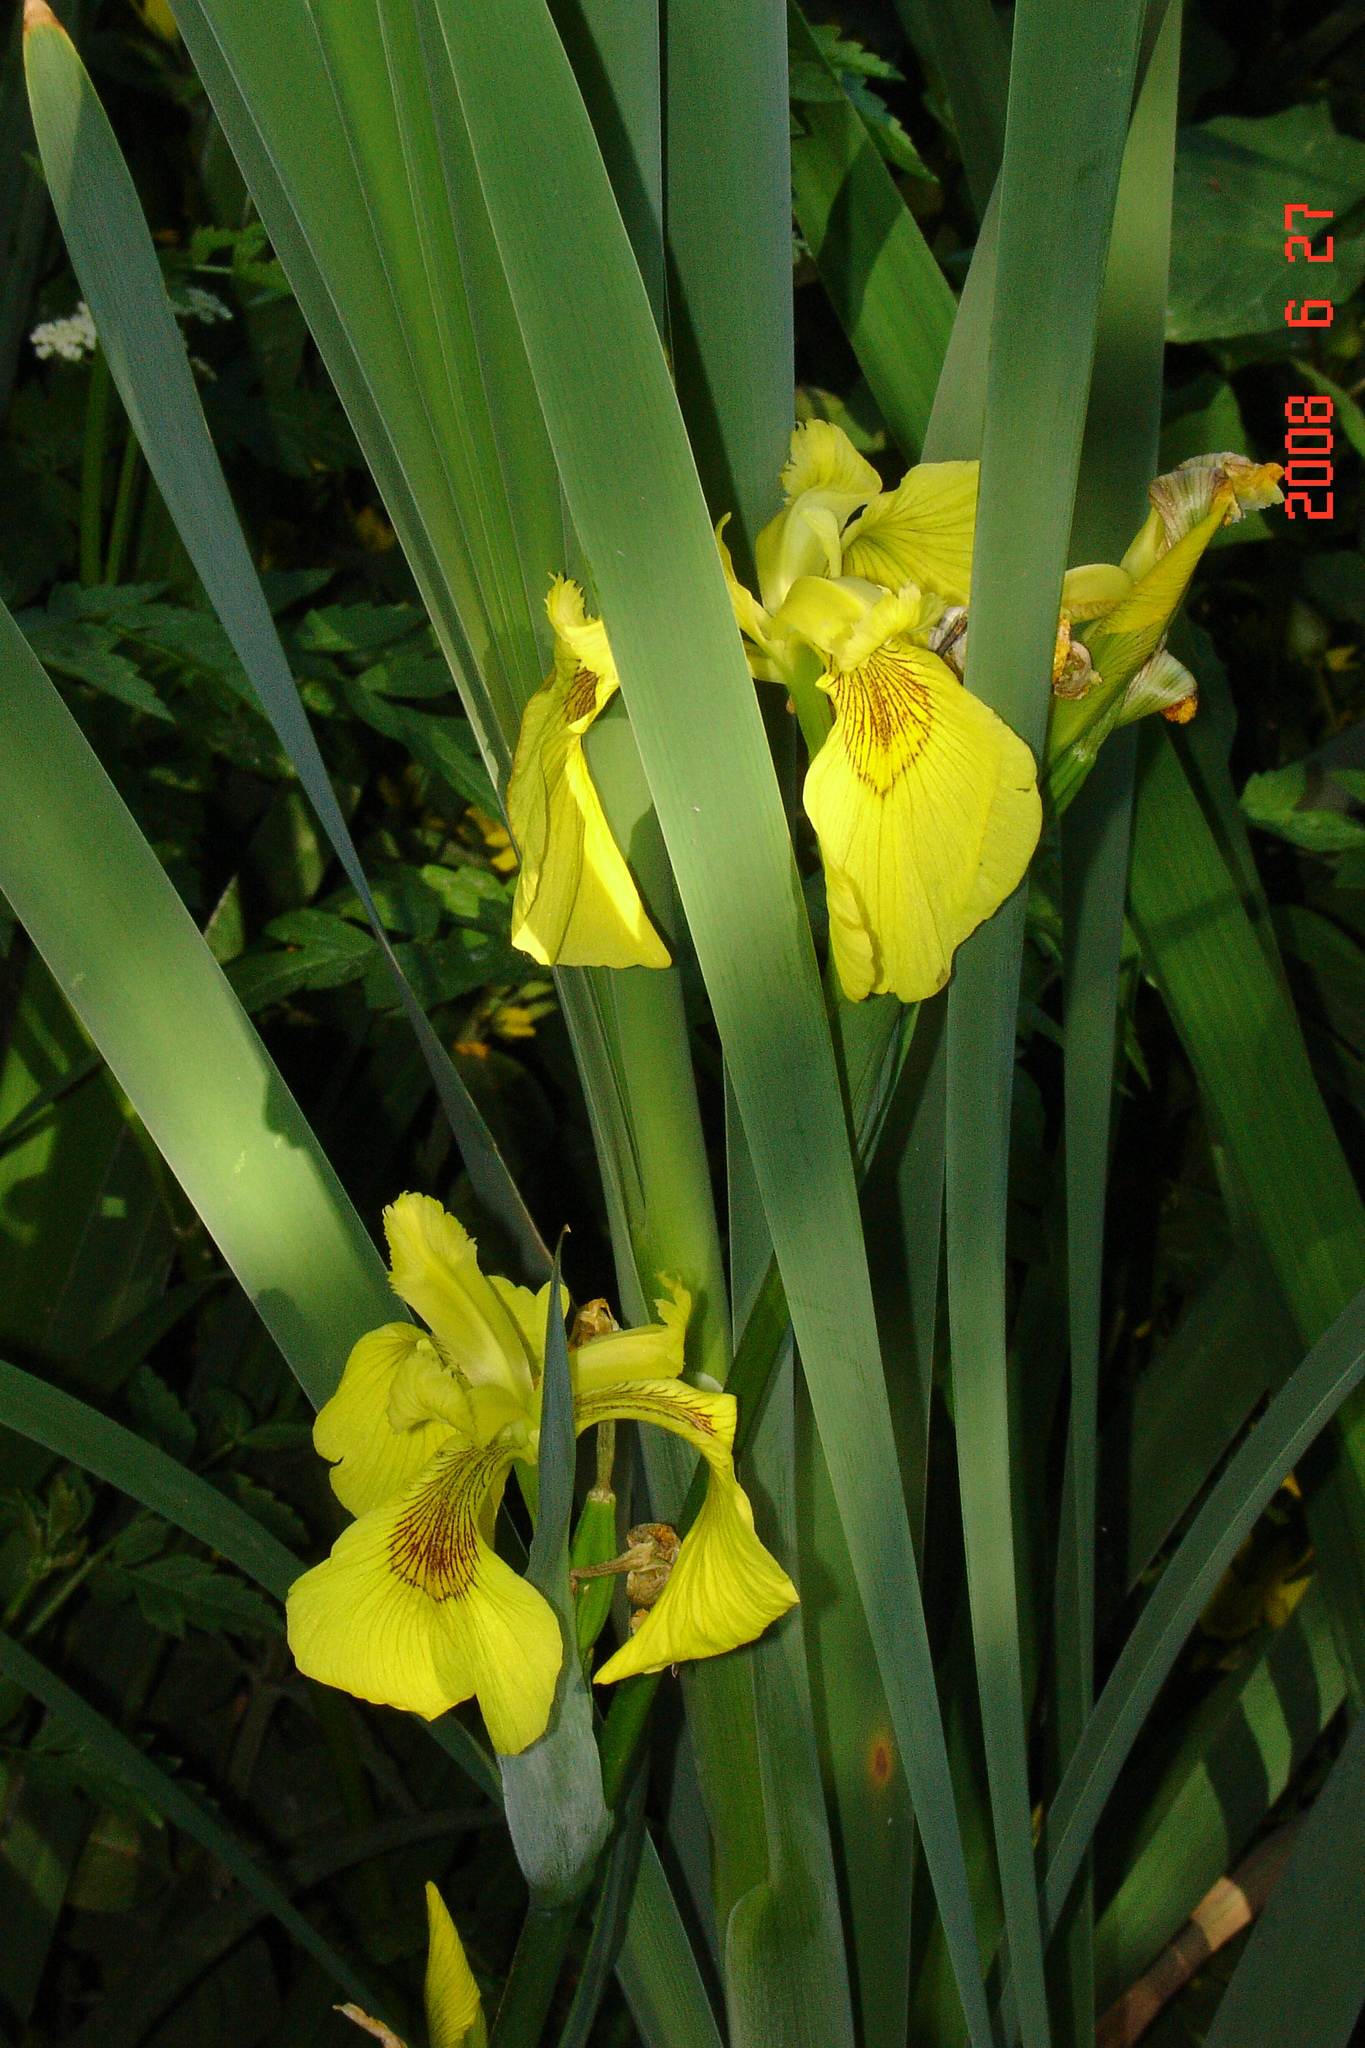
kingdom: Plantae
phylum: Tracheophyta
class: Liliopsida
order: Asparagales
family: Iridaceae
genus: Iris
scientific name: Iris pseudacorus
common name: Yellow flag
